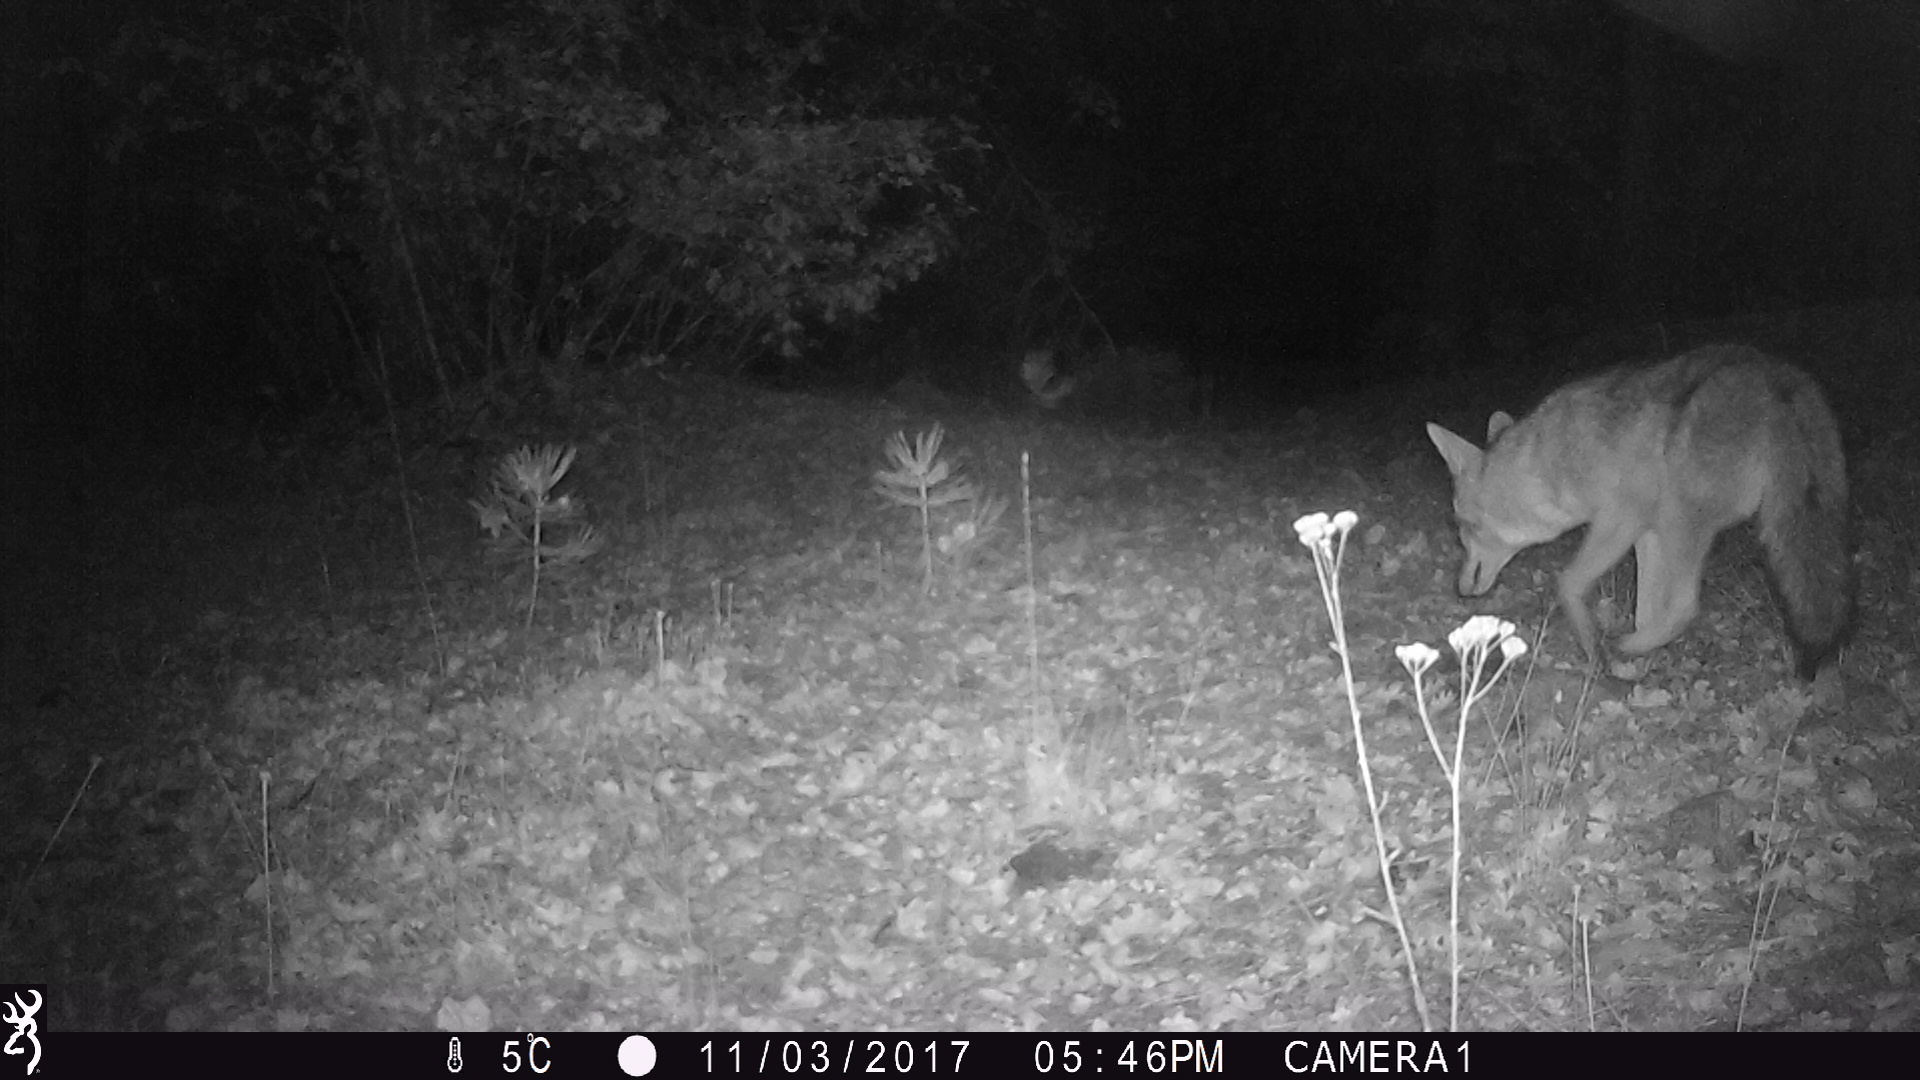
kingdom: Animalia
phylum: Chordata
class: Mammalia
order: Carnivora
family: Canidae
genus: Canis
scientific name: Canis latrans
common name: Coyote
